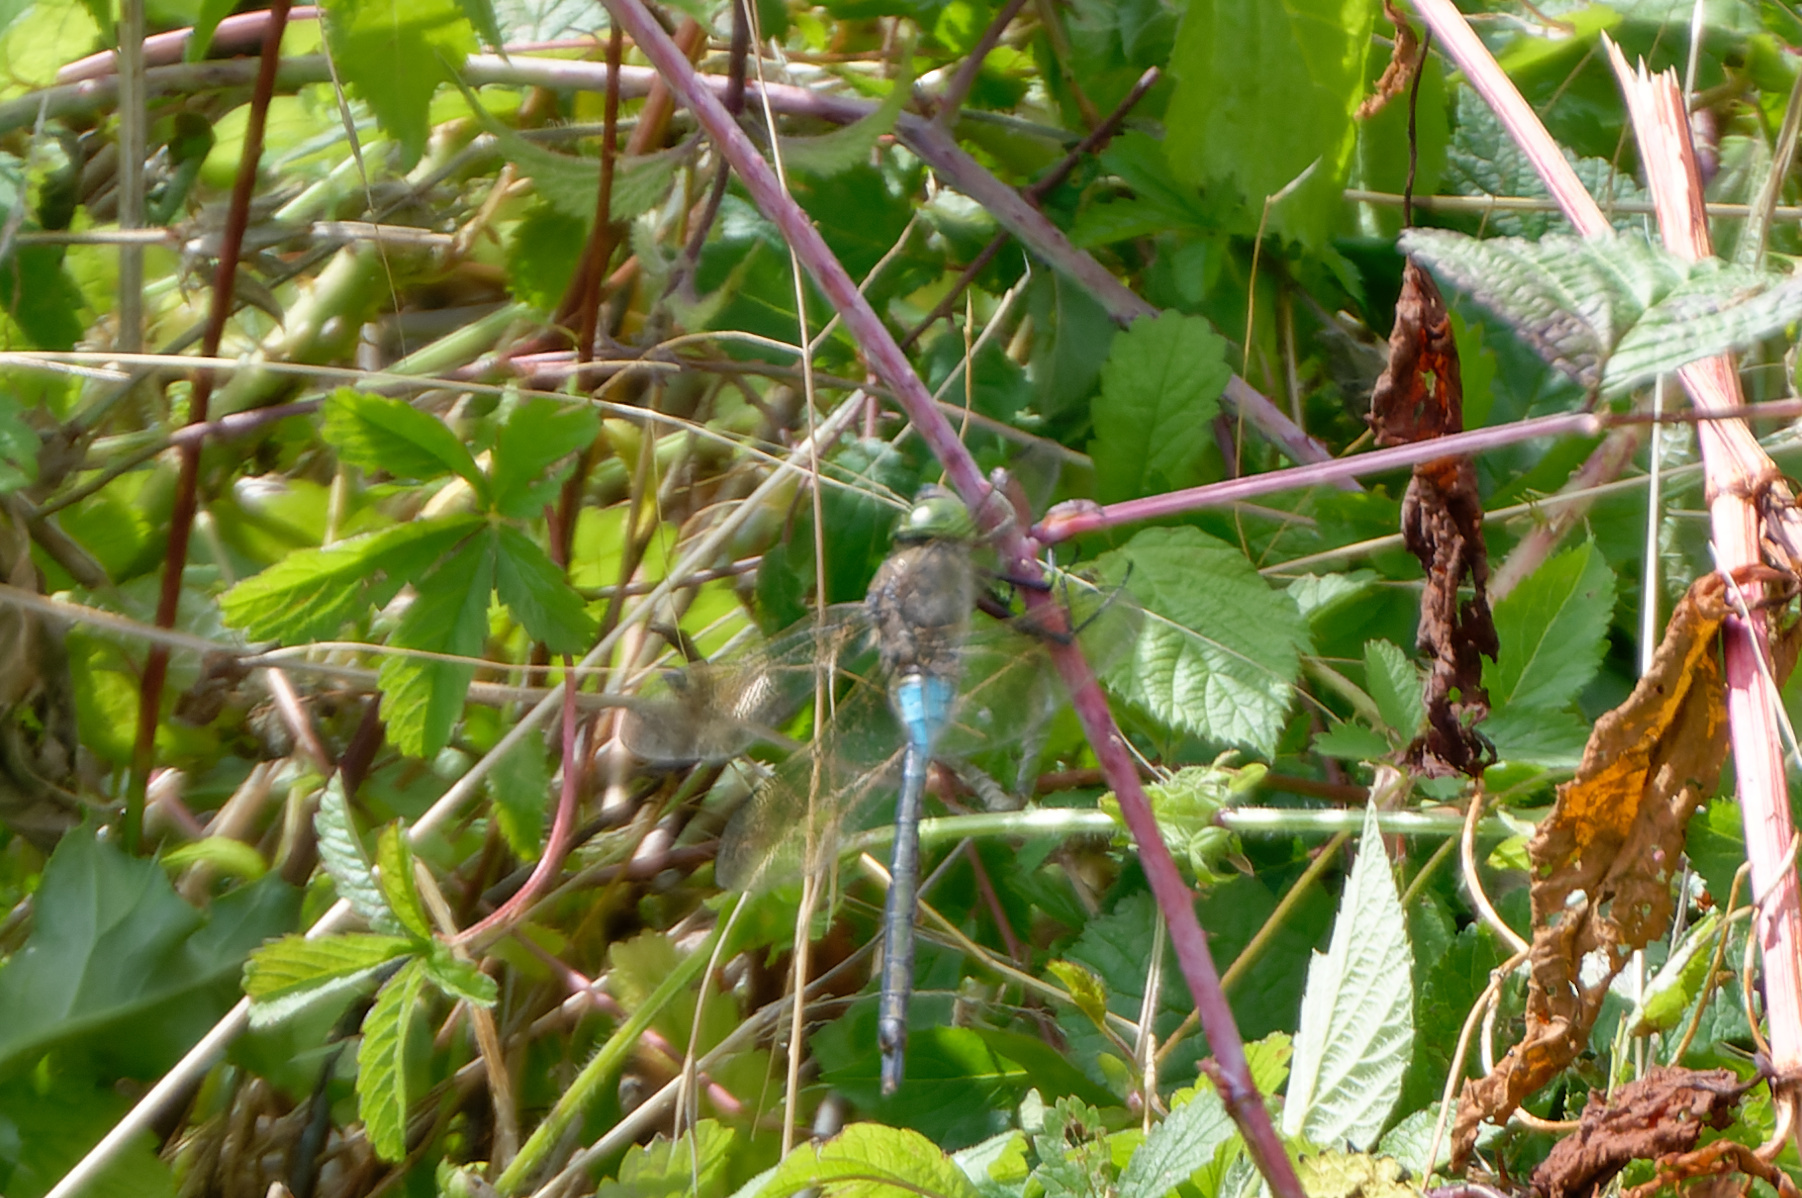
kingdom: Animalia
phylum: Arthropoda
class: Insecta
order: Odonata
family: Aeshnidae
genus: Anax
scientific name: Anax parthenope
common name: Lesser emperor
